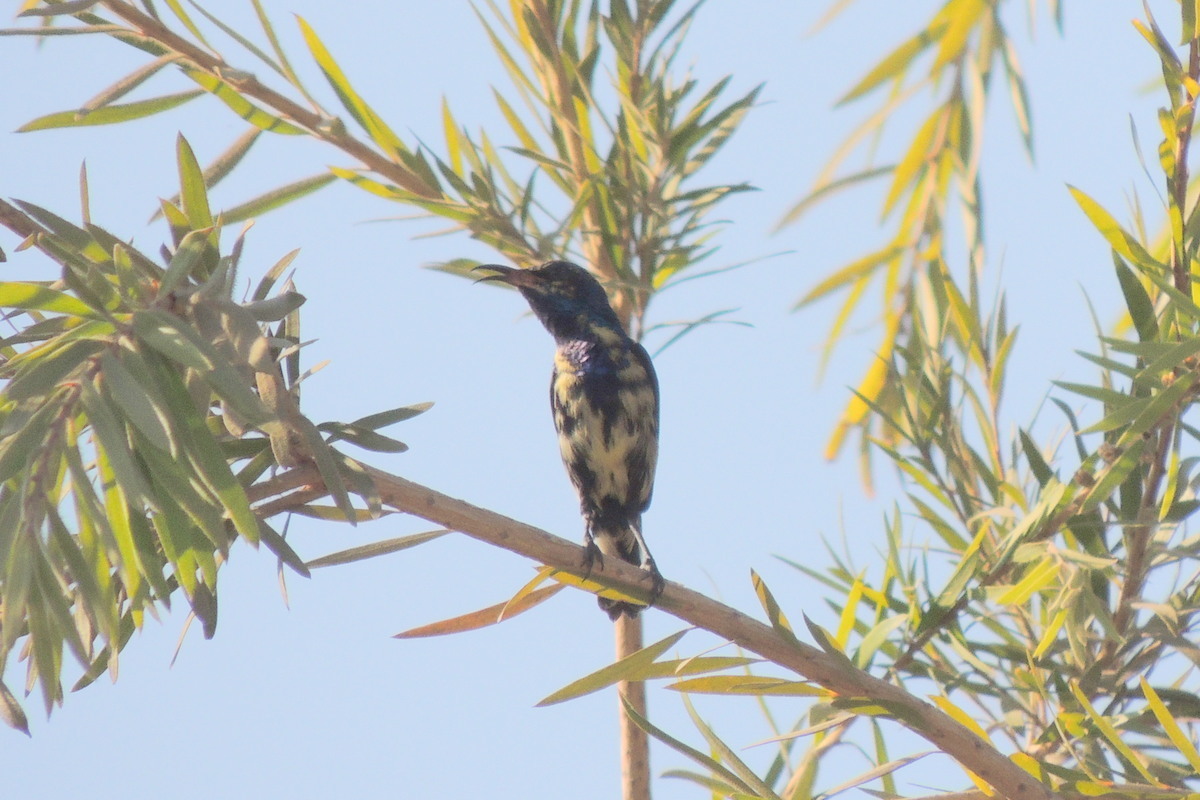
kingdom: Animalia
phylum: Chordata
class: Aves
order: Passeriformes
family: Nectariniidae
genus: Cinnyris
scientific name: Cinnyris asiaticus
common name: Purple sunbird
